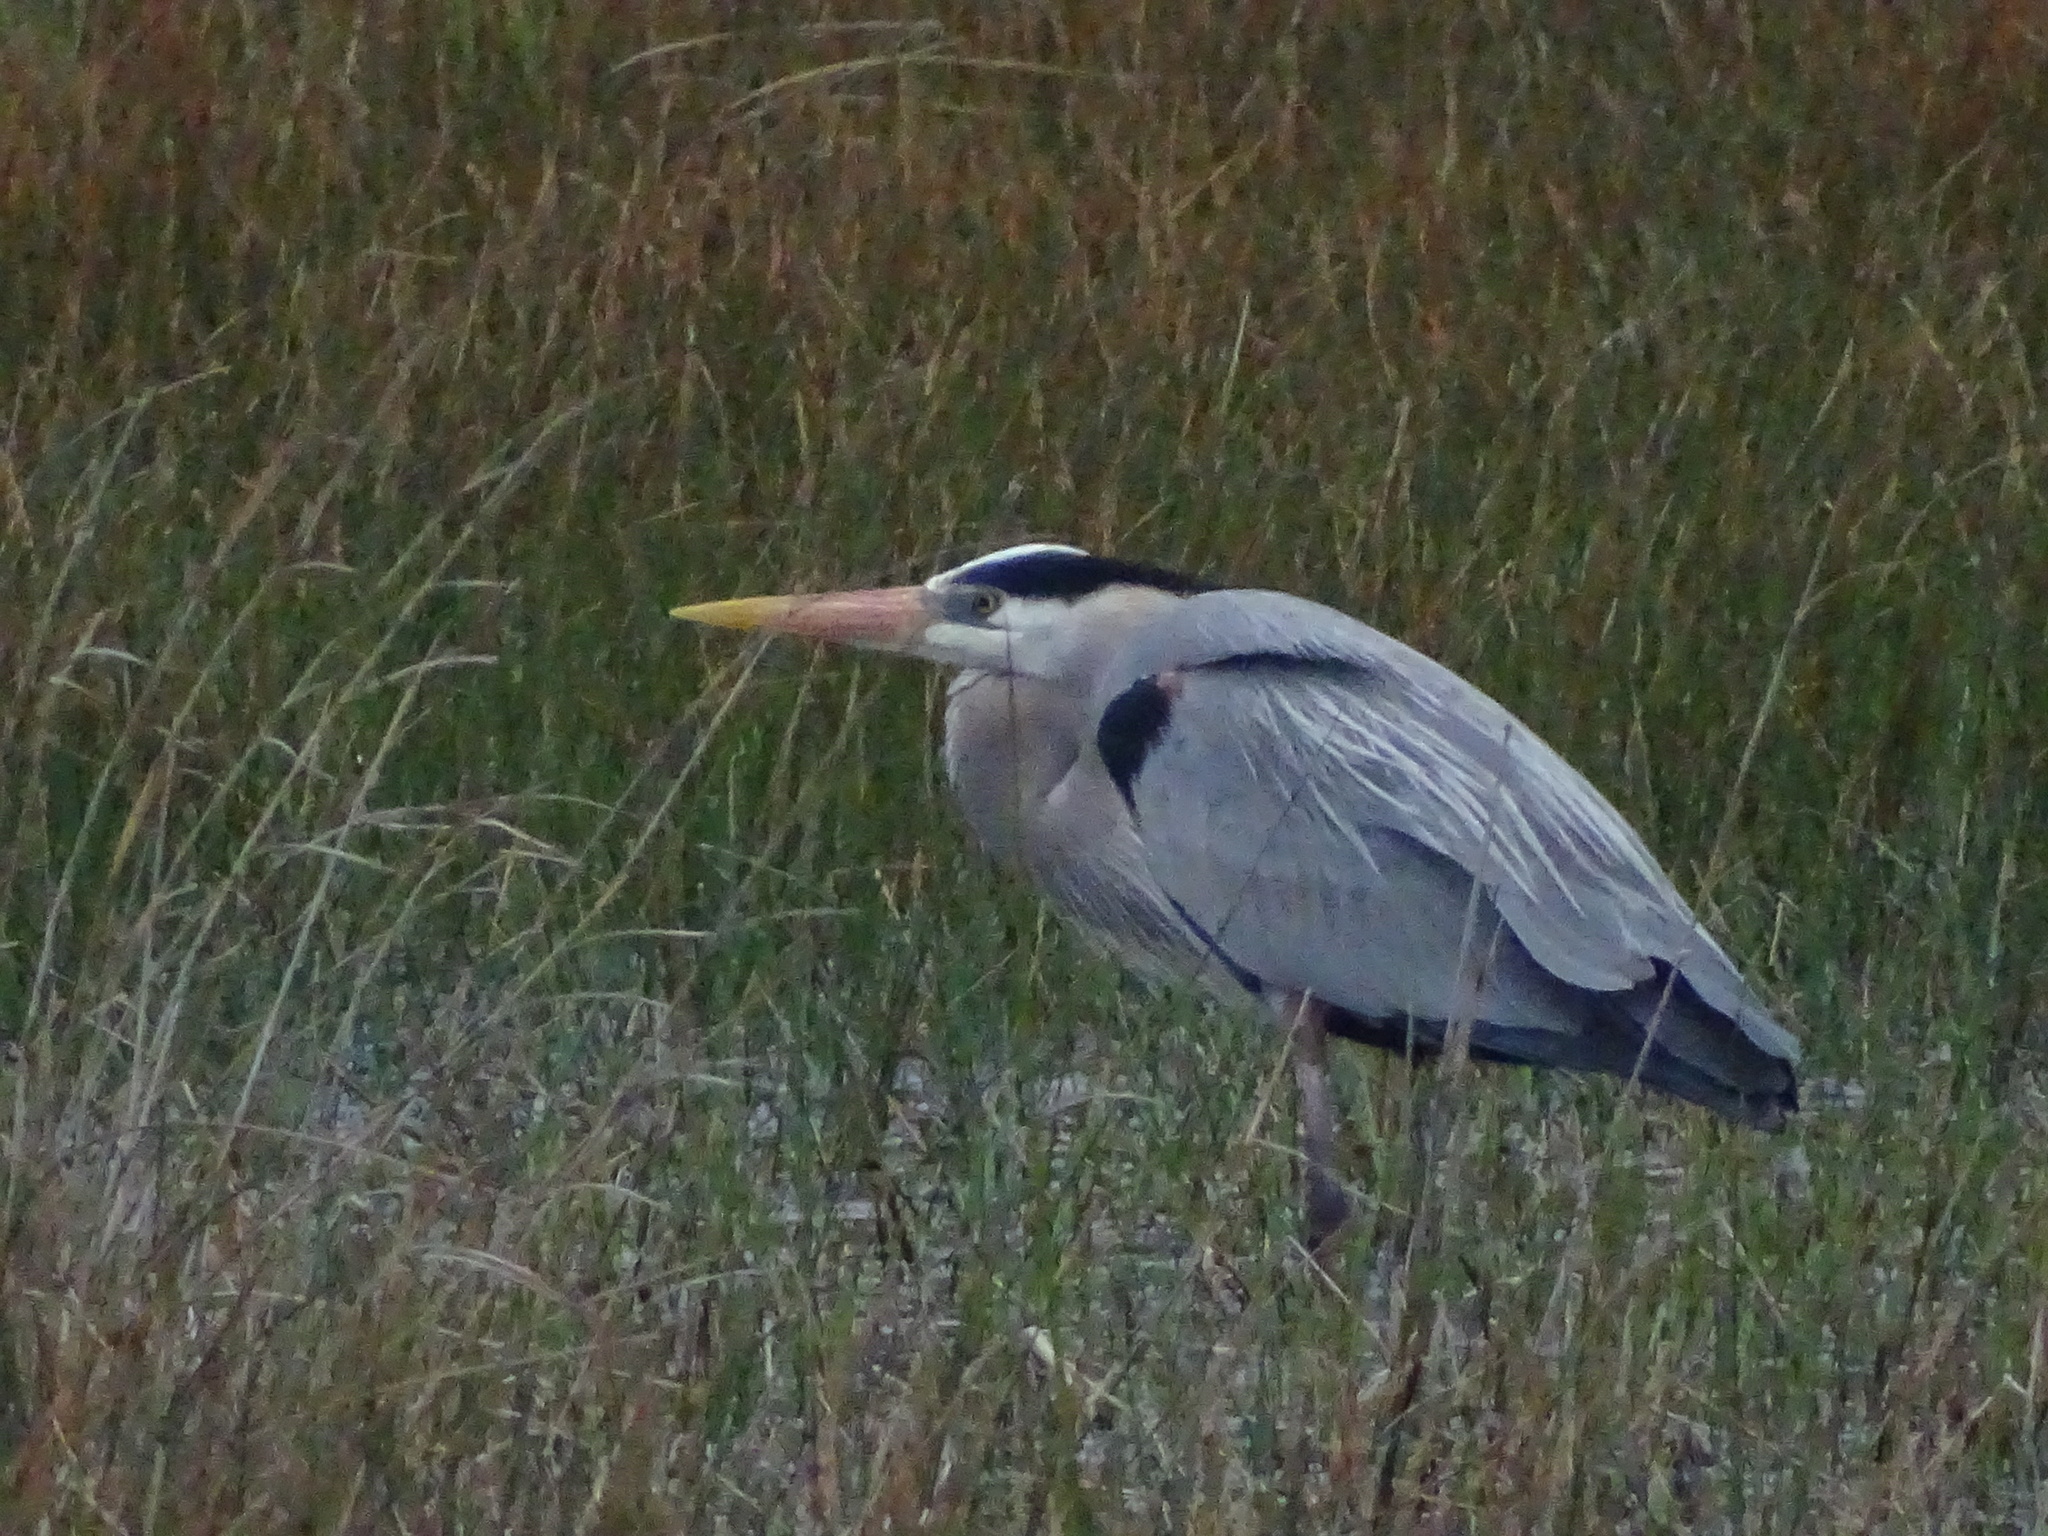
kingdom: Animalia
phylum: Chordata
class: Aves
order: Pelecaniformes
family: Ardeidae
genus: Ardea
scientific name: Ardea herodias
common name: Great blue heron
